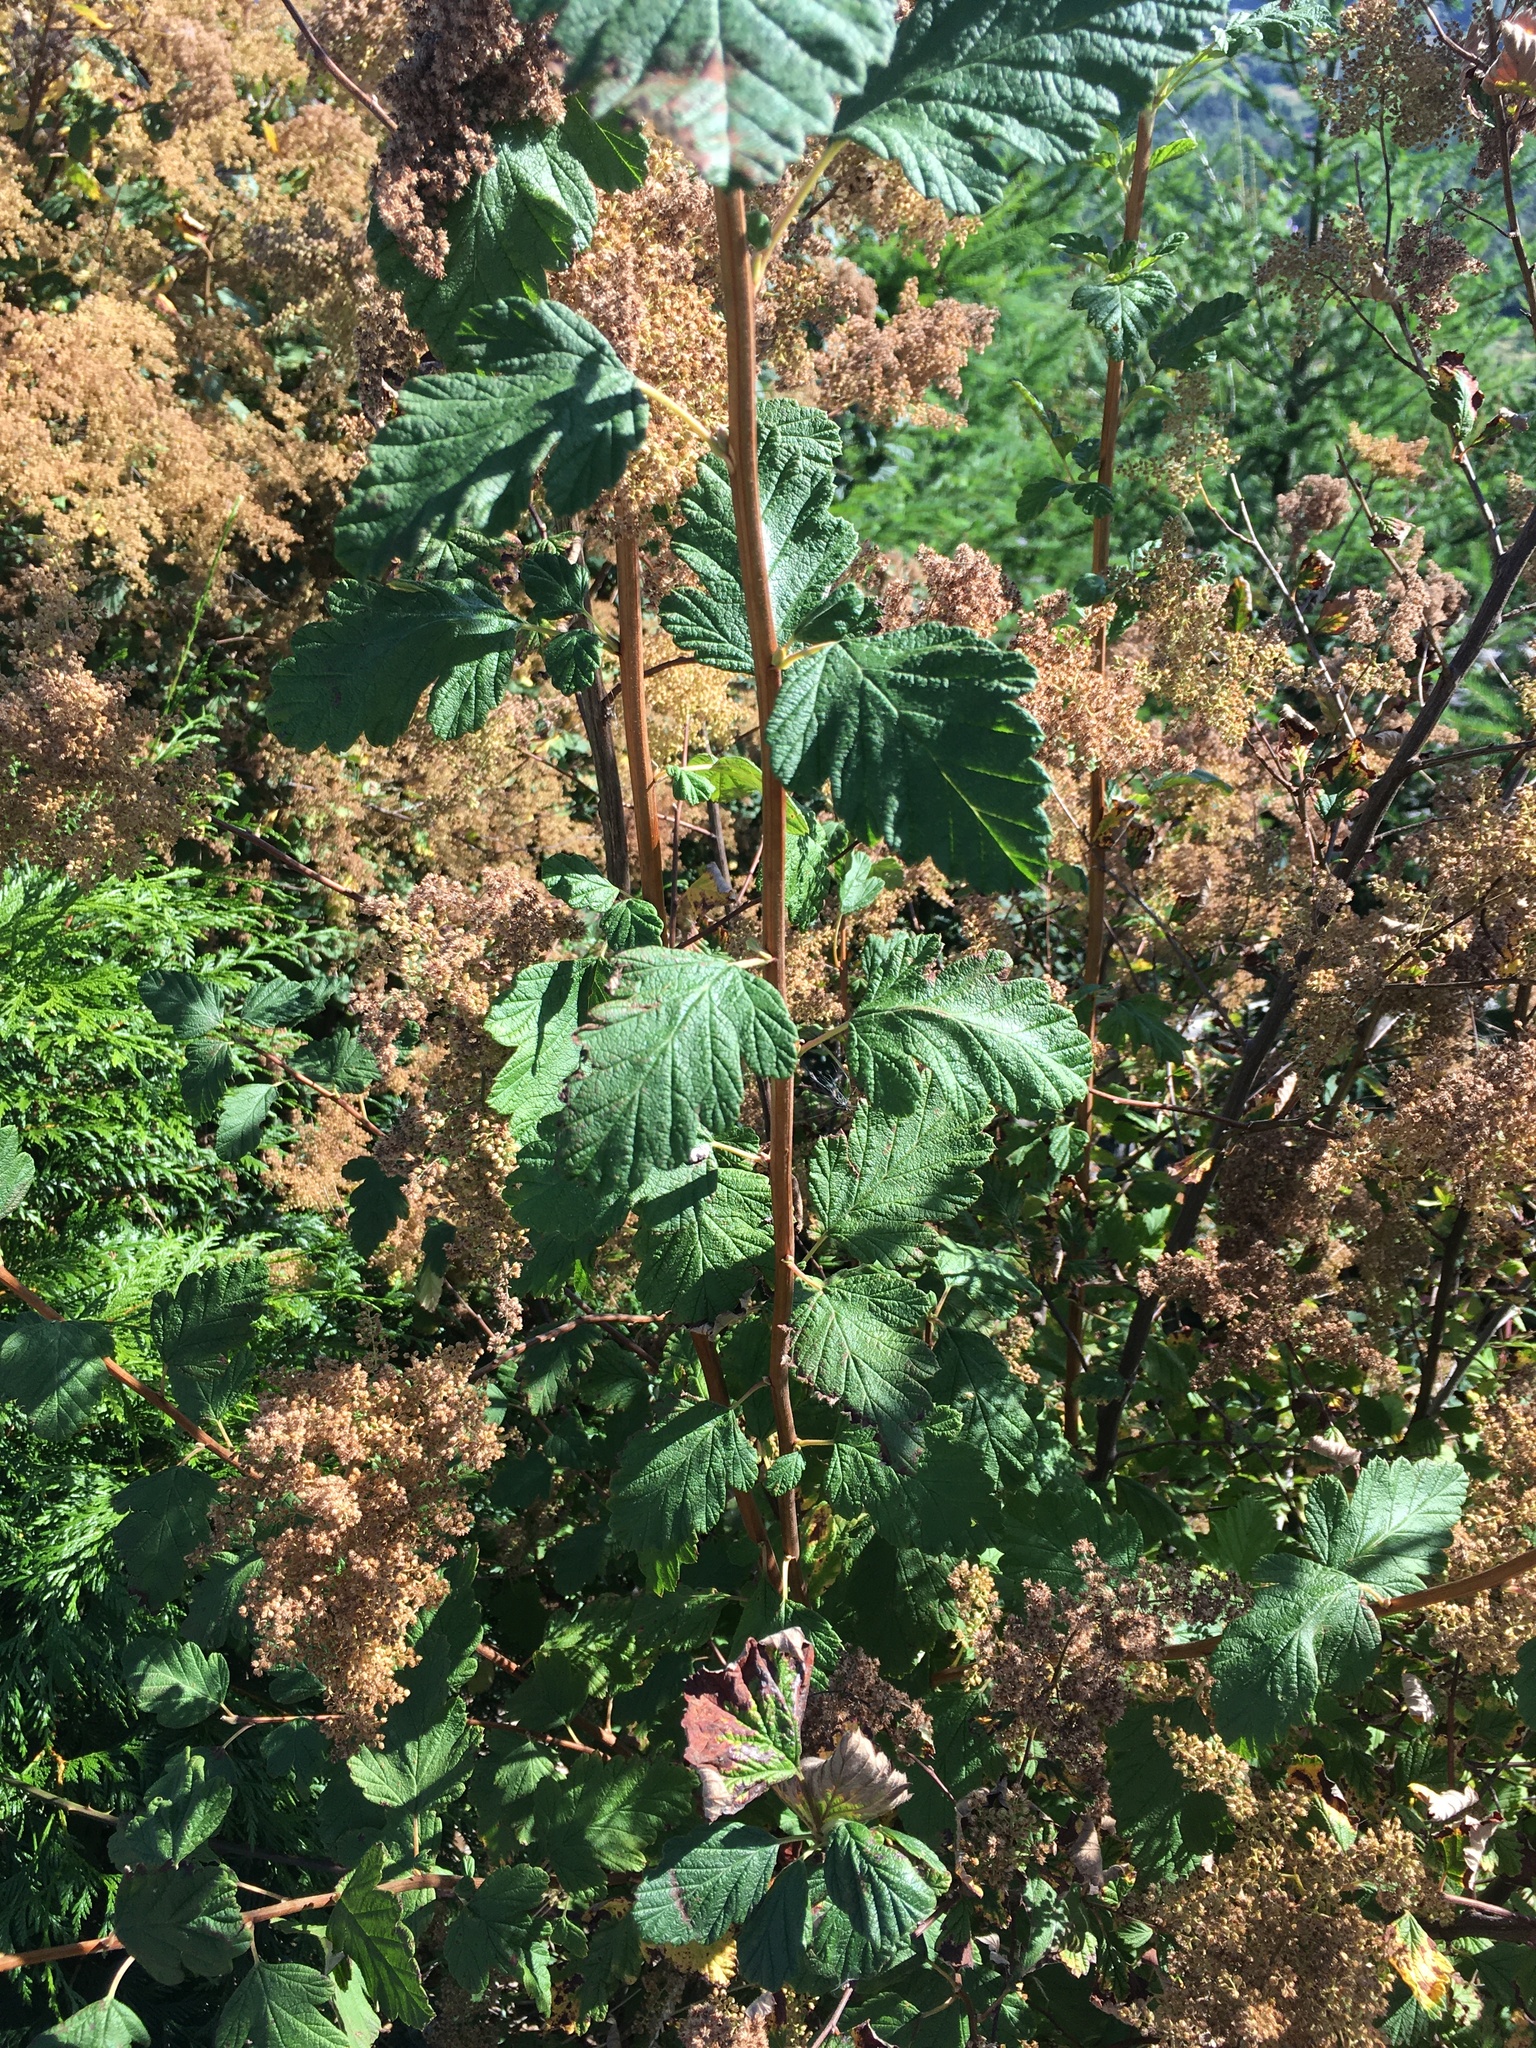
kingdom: Plantae
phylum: Tracheophyta
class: Magnoliopsida
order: Rosales
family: Rosaceae
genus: Holodiscus
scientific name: Holodiscus discolor
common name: Oceanspray
